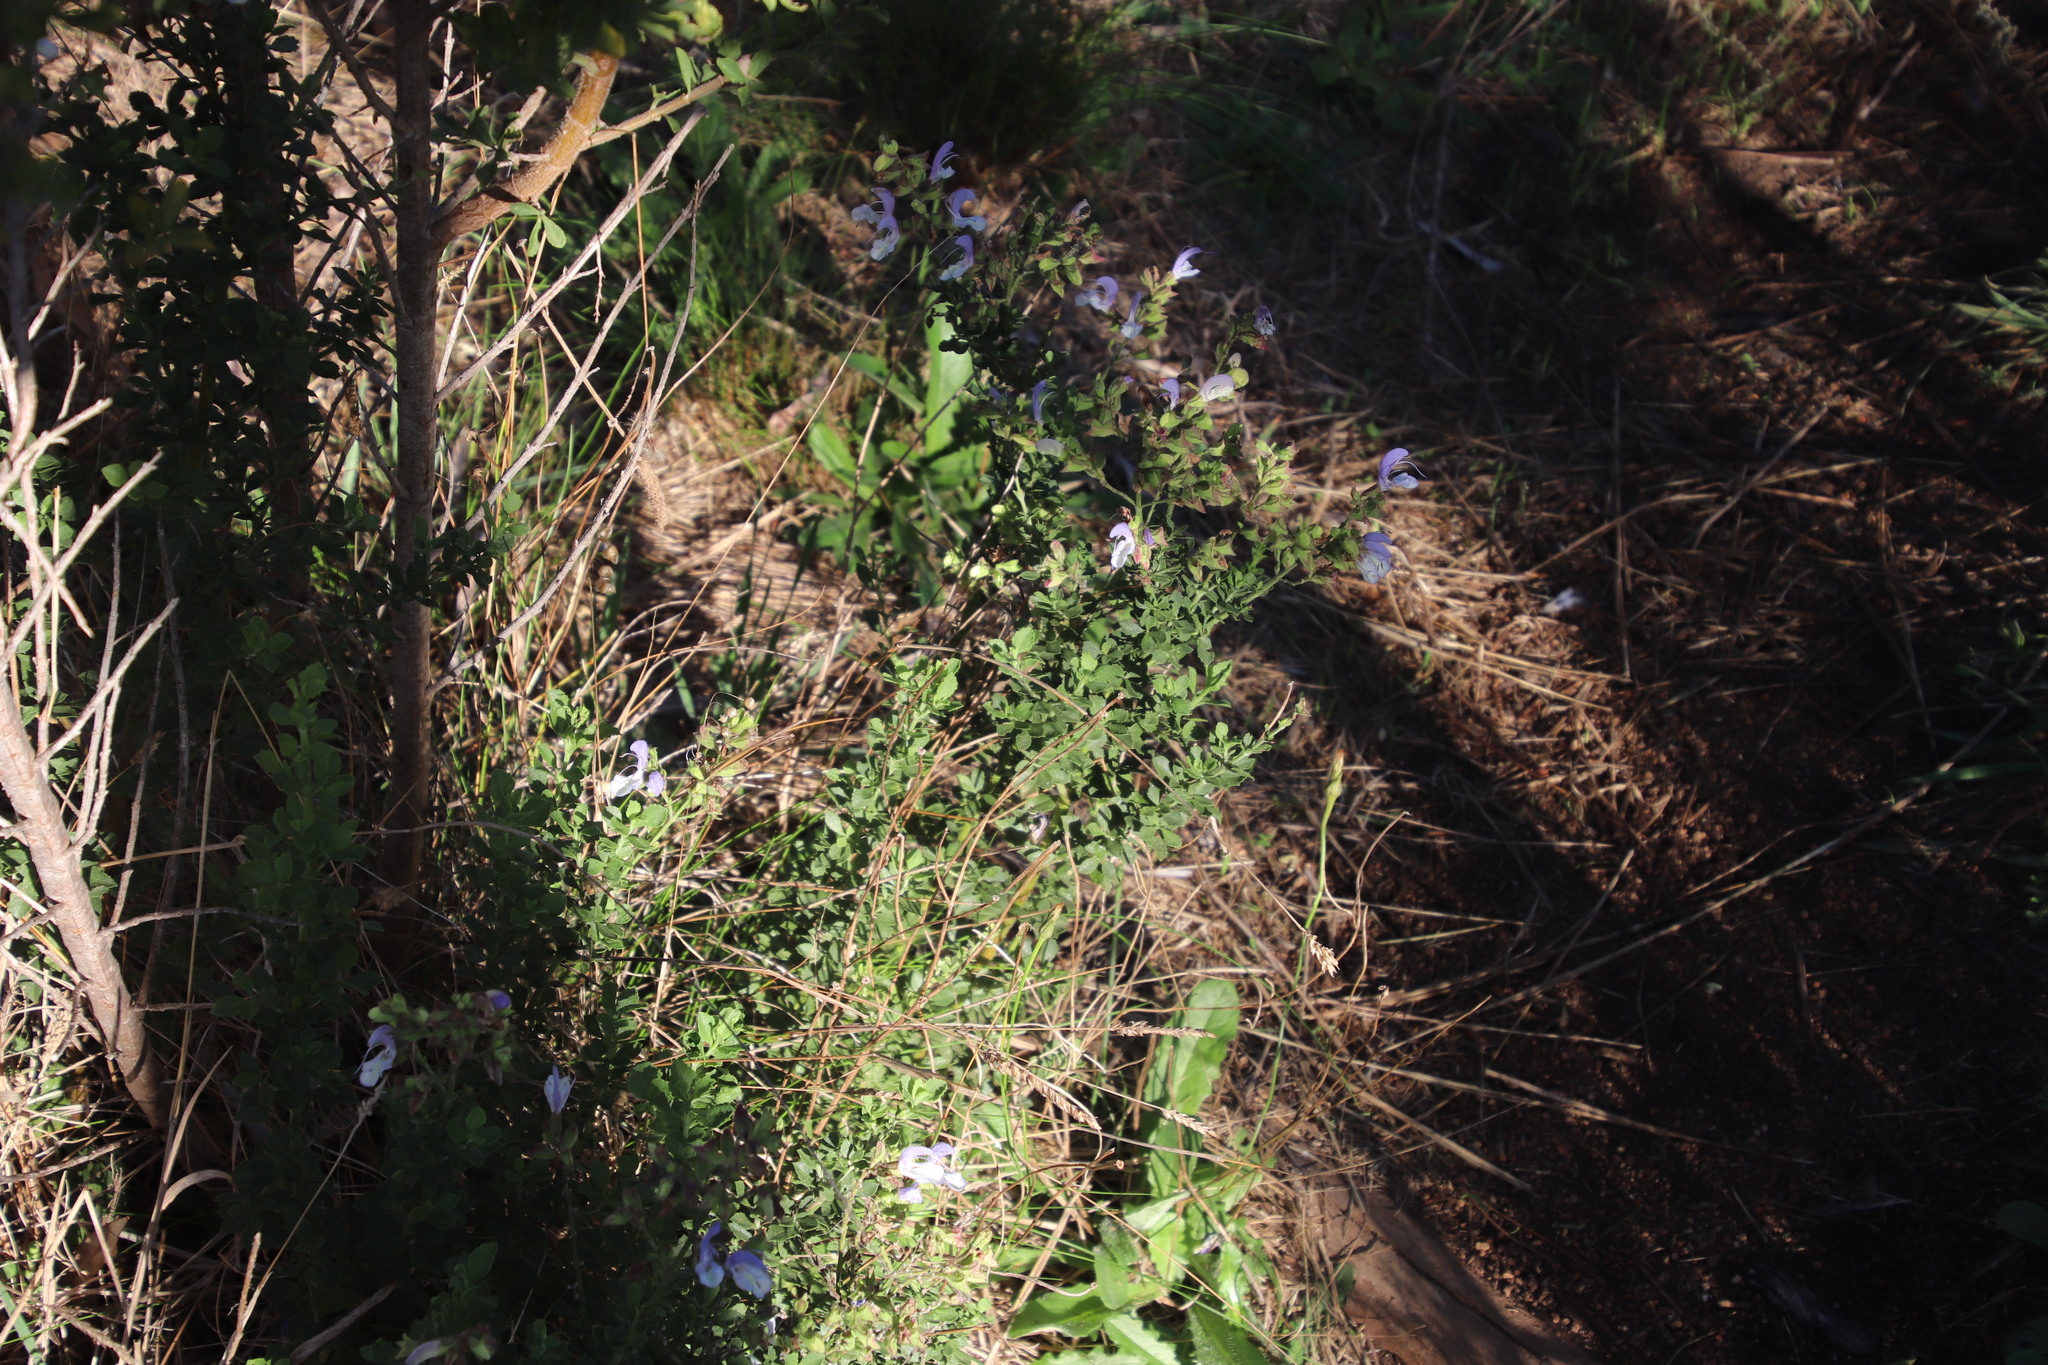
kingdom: Plantae
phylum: Tracheophyta
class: Magnoliopsida
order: Lamiales
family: Lamiaceae
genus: Salvia
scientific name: Salvia africana
